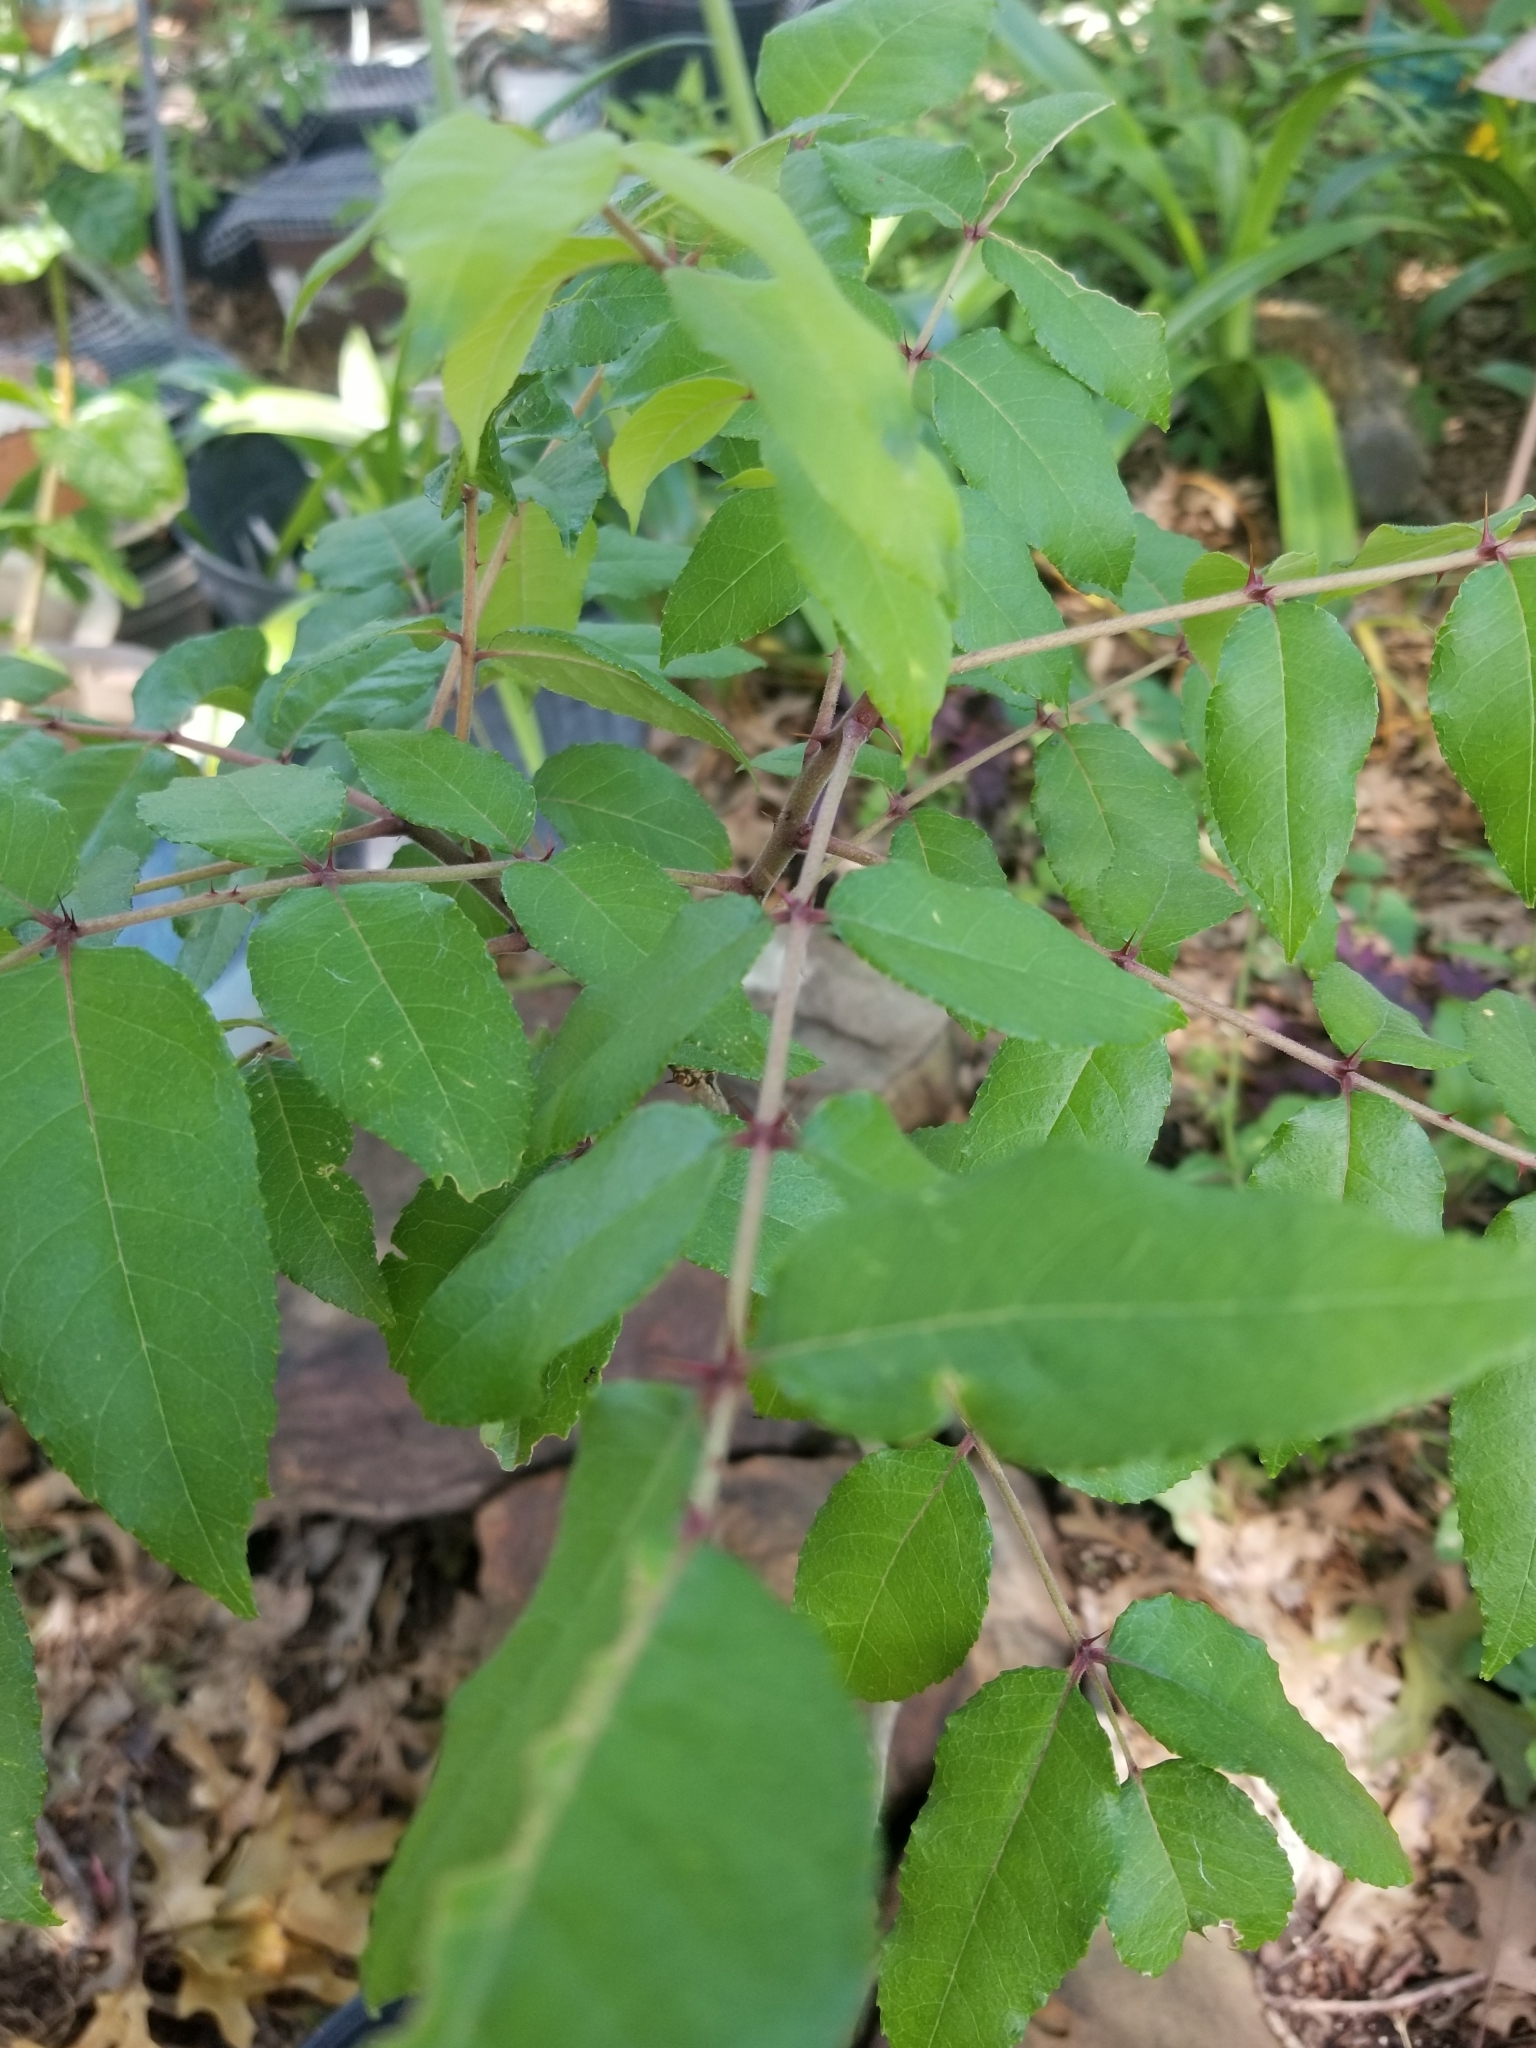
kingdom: Plantae
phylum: Tracheophyta
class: Magnoliopsida
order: Sapindales
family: Rutaceae
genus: Zanthoxylum
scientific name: Zanthoxylum clava-herculis
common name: Hercules'-club
